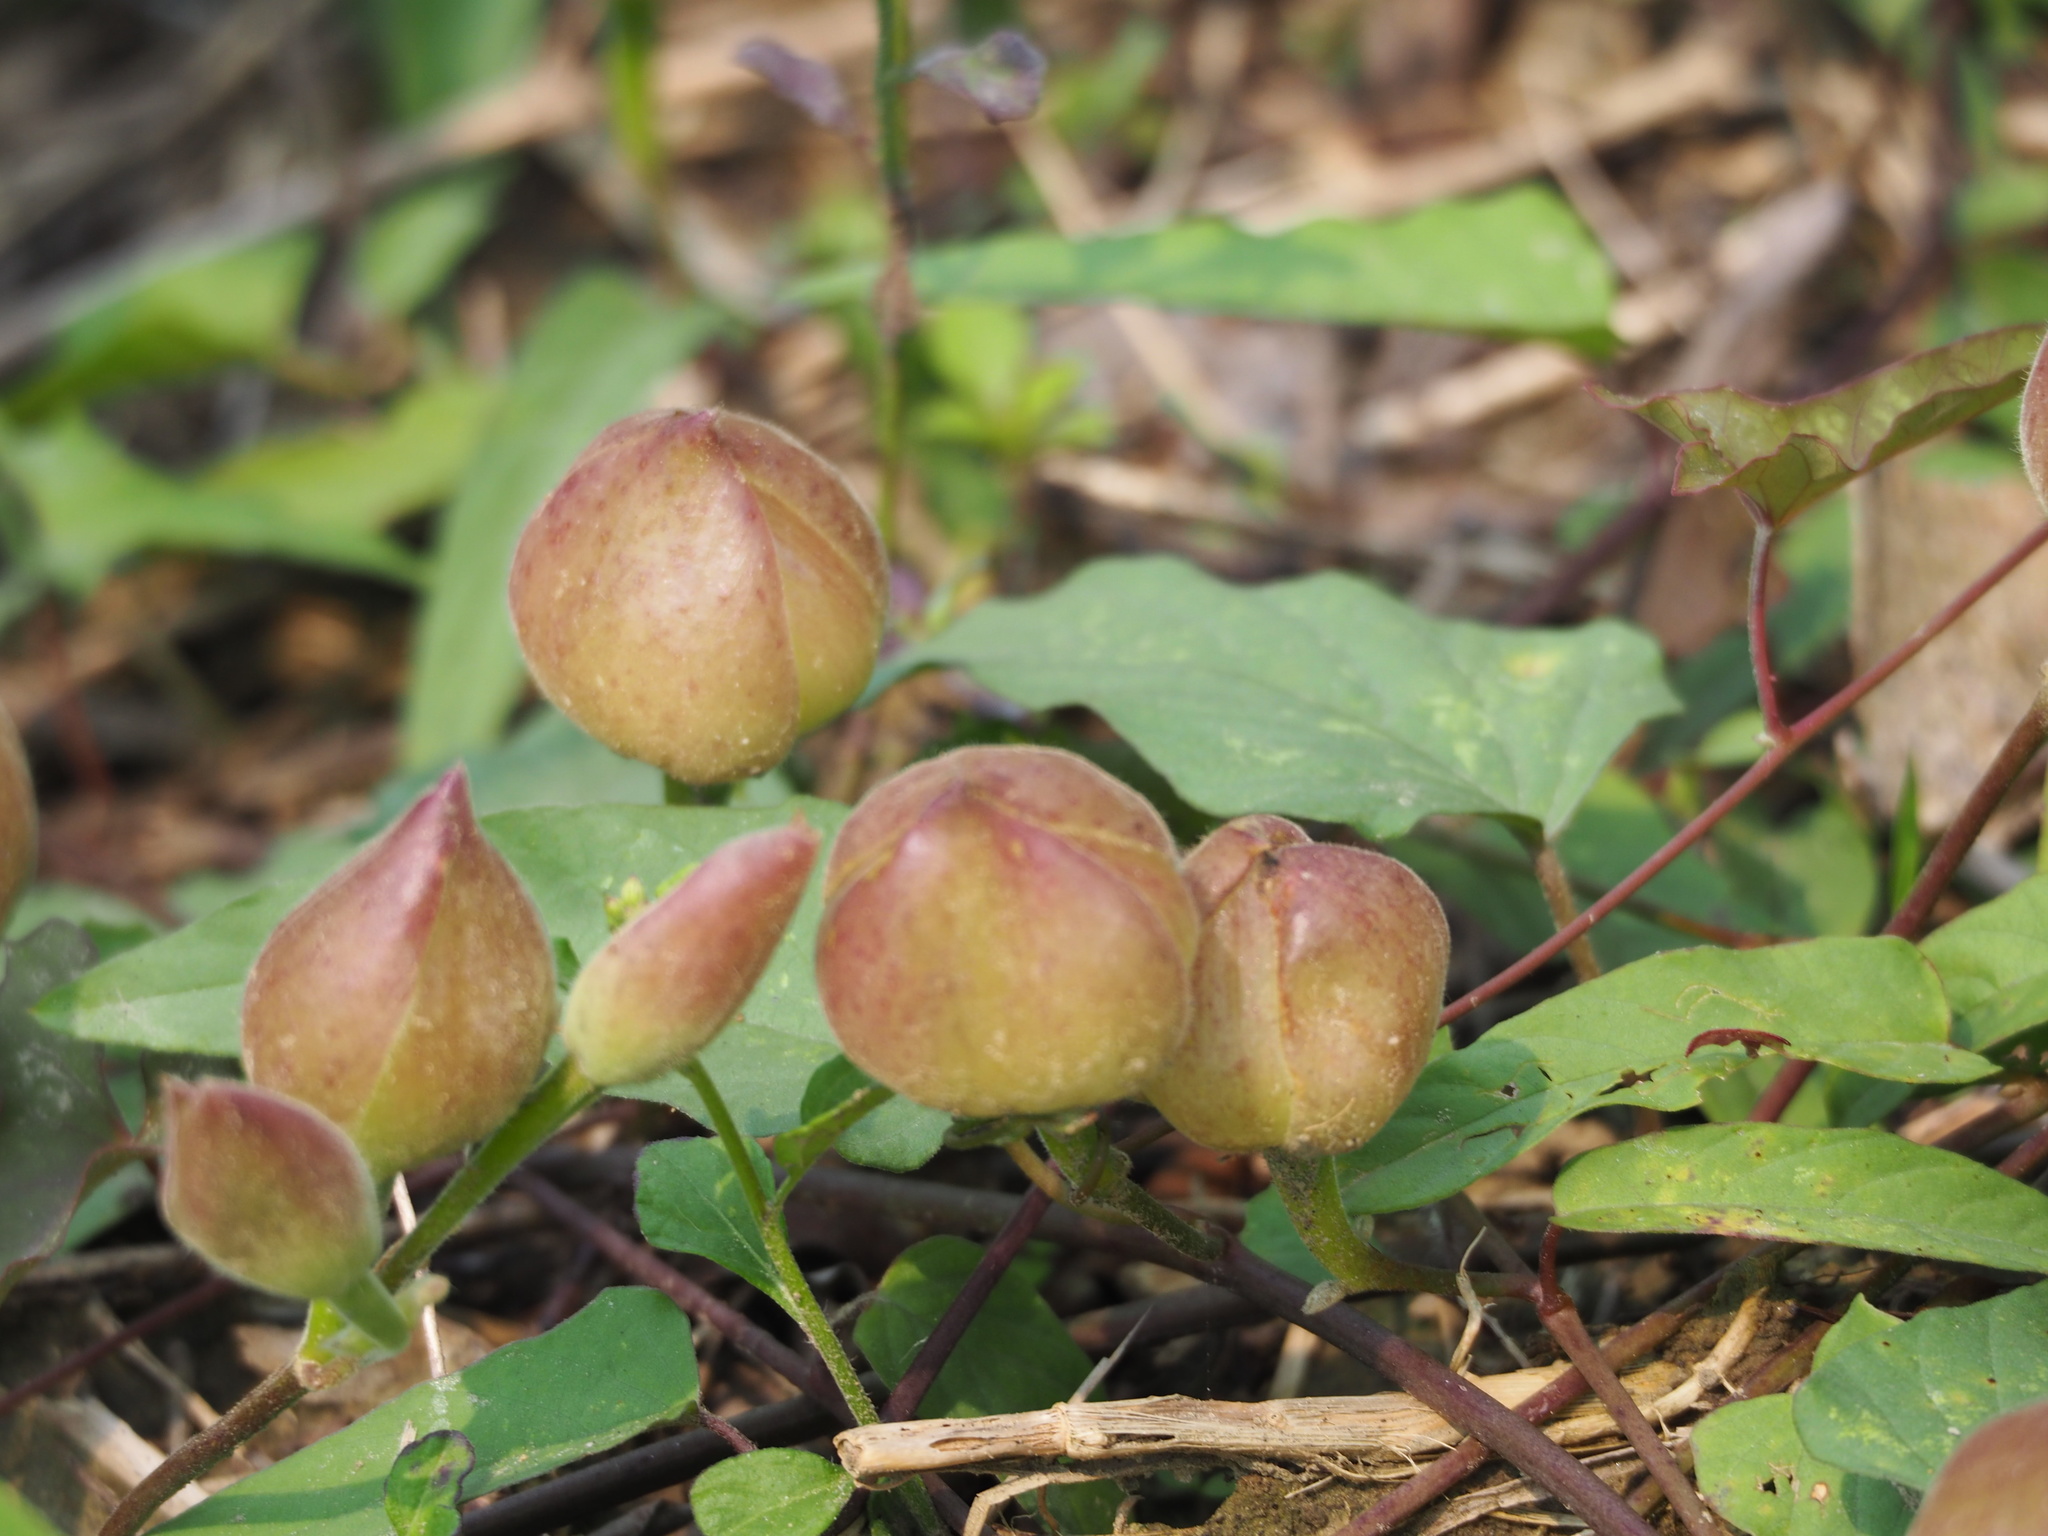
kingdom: Plantae
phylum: Tracheophyta
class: Magnoliopsida
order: Solanales
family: Convolvulaceae
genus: Operculina
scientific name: Operculina turpethum
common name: Transparent wood-rose
